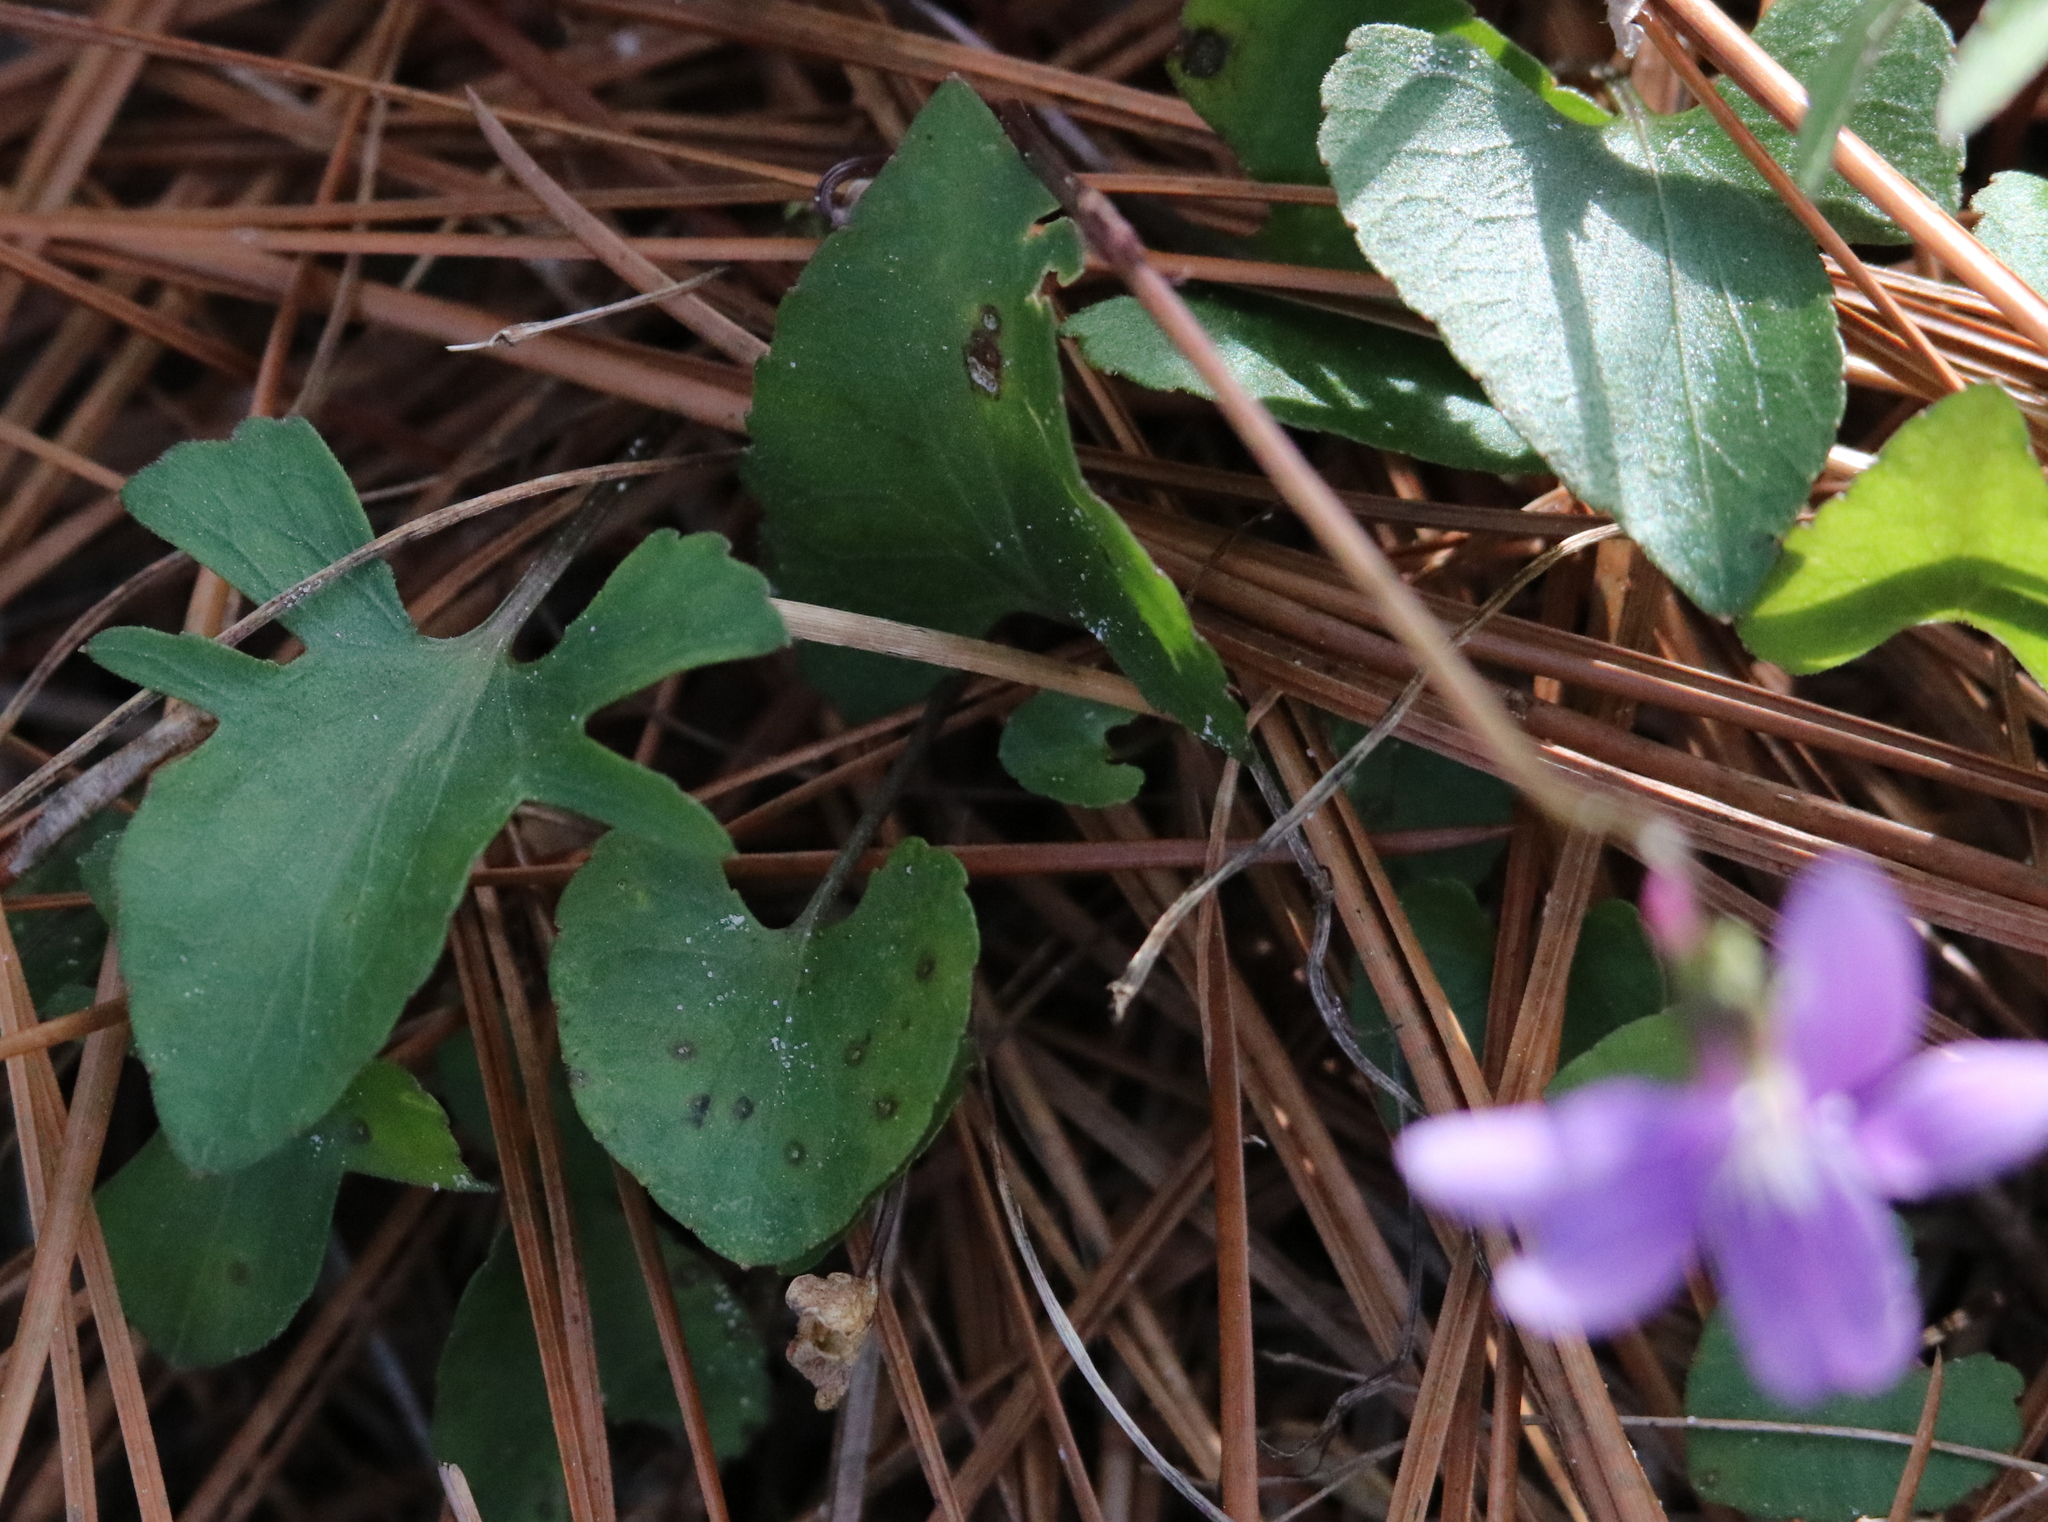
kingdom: Plantae
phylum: Tracheophyta
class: Magnoliopsida
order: Malpighiales
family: Violaceae
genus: Viola
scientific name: Viola septemloba
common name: Southern coast violet
